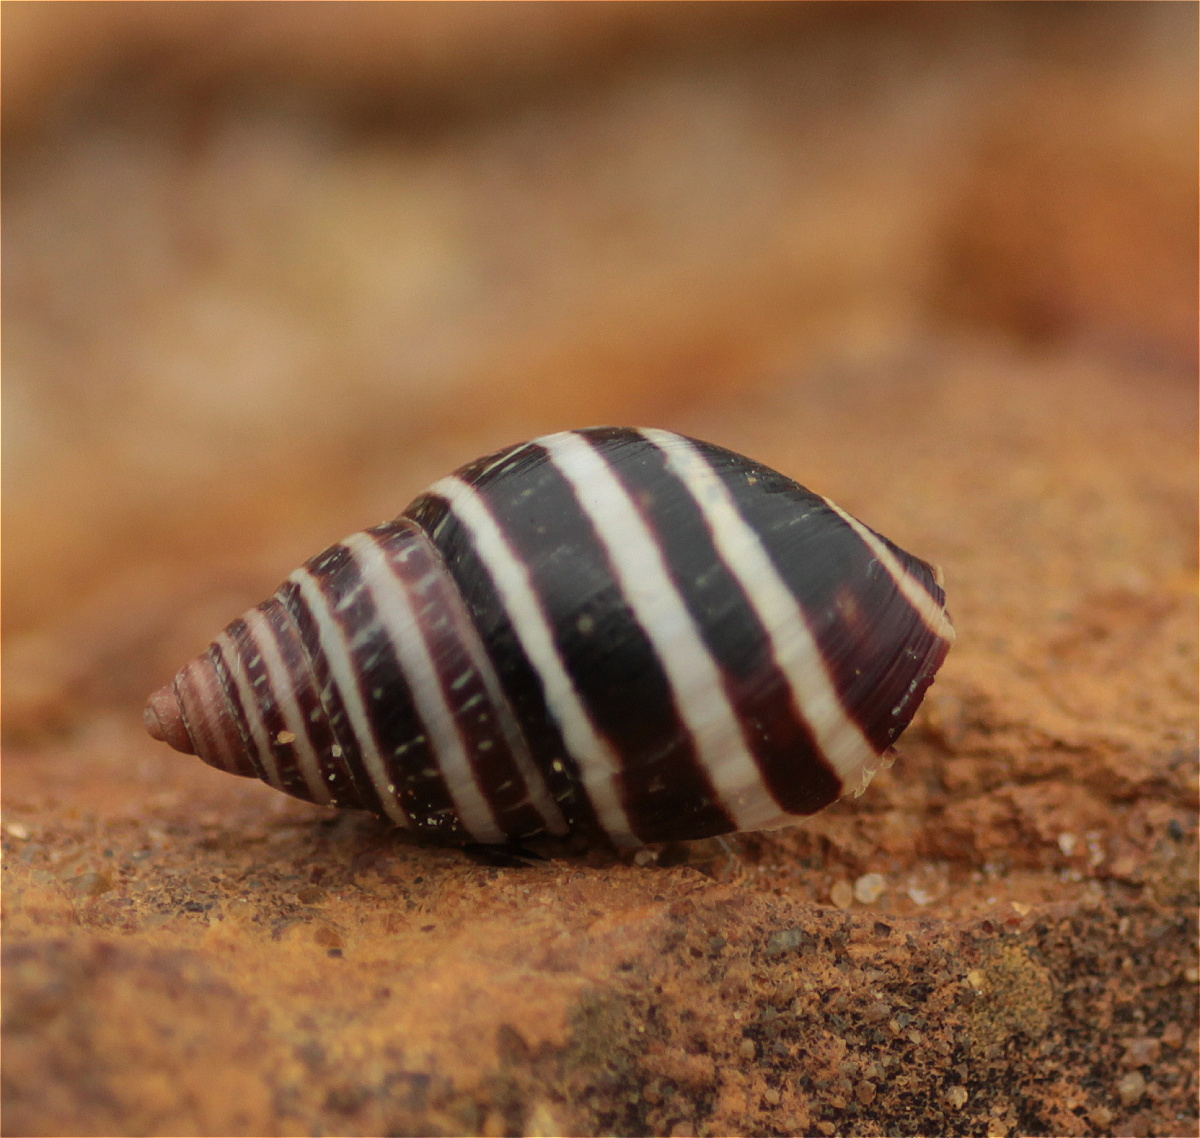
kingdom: Animalia
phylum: Mollusca
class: Gastropoda
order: Stylommatophora
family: Bulimulidae
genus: Drymaeus
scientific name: Drymaeus
